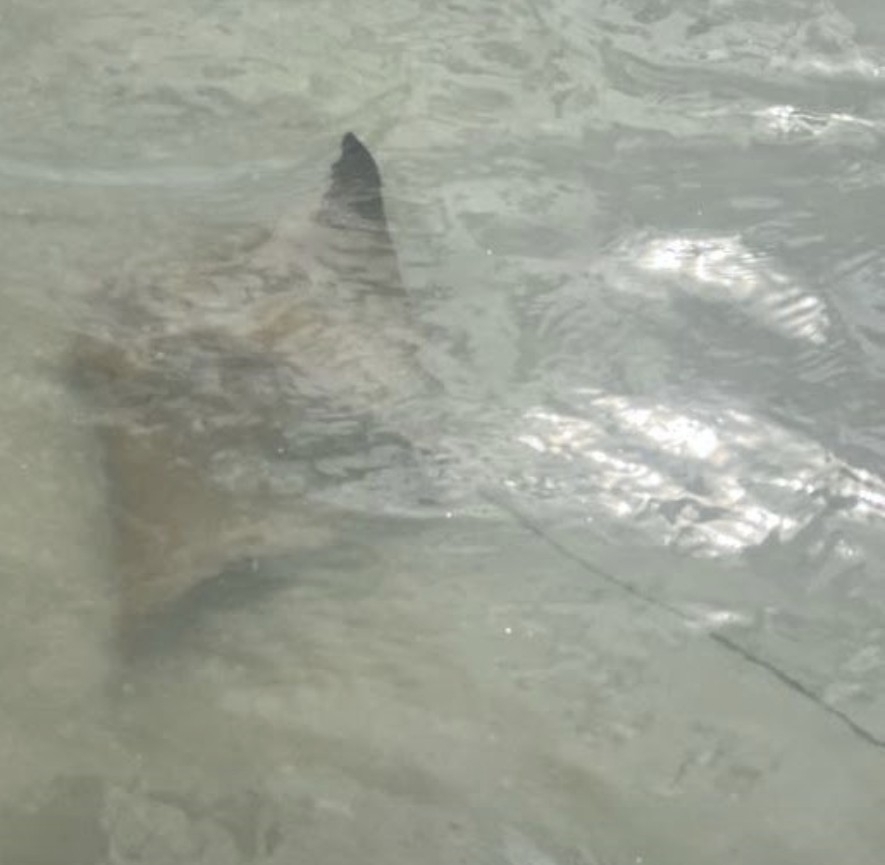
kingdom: Animalia
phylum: Chordata
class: Elasmobranchii
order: Myliobatiformes
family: Myliobatidae
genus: Rhinoptera
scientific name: Rhinoptera bonasus
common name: Cownose ray
